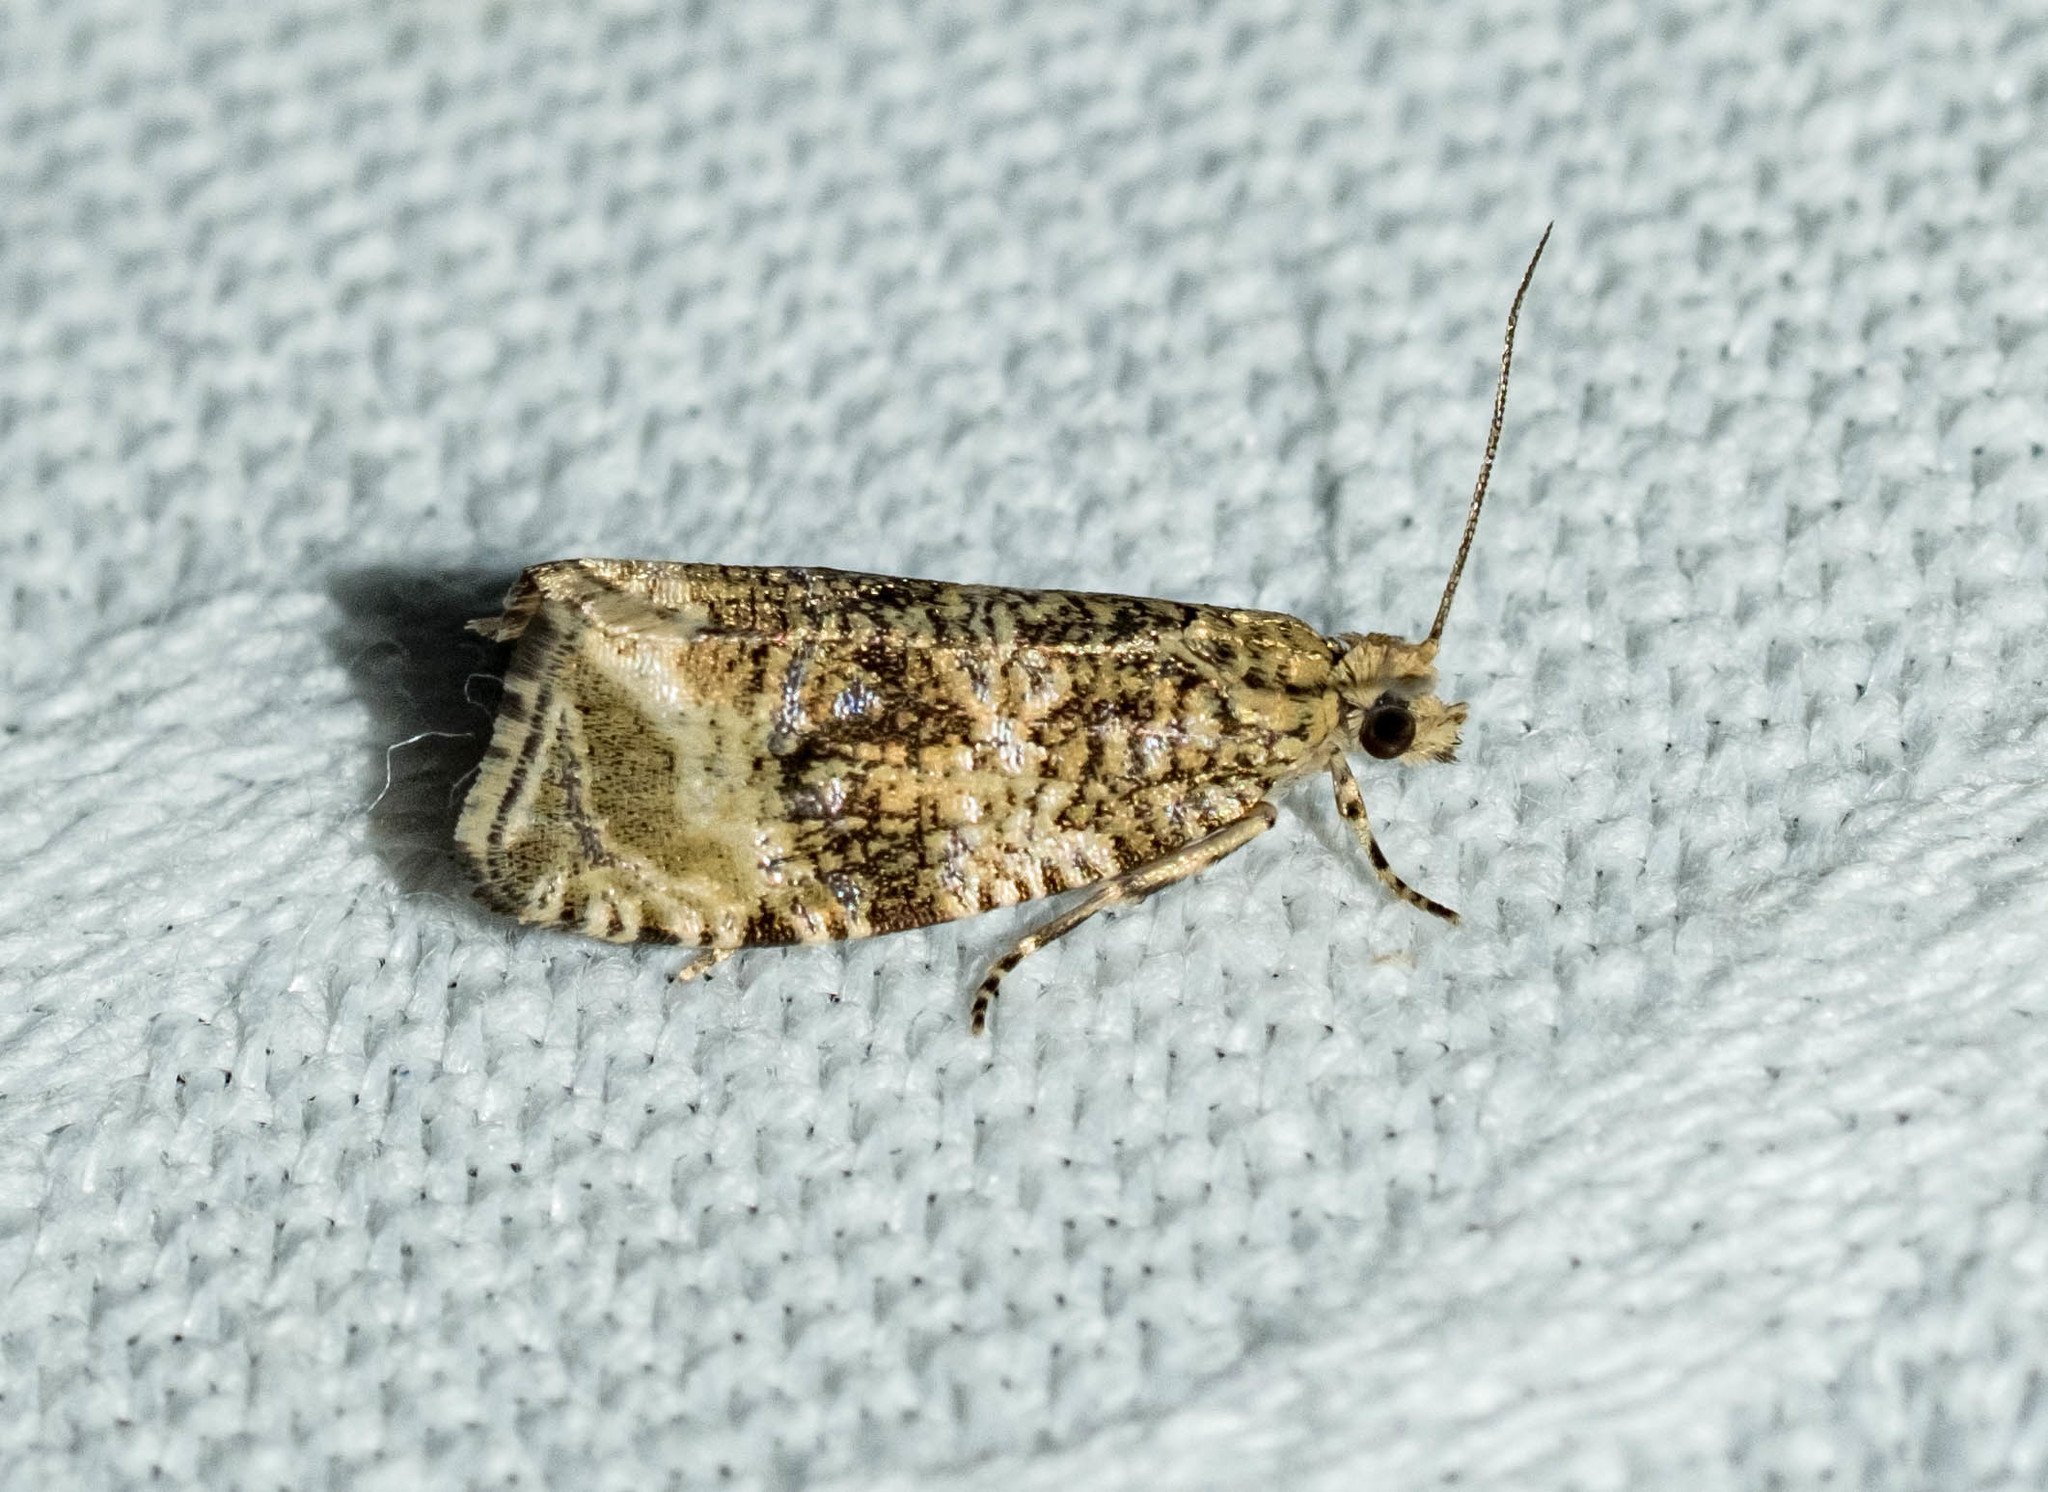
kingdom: Animalia
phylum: Arthropoda
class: Insecta
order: Lepidoptera
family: Tortricidae
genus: Syricoris
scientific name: Syricoris lacunana
